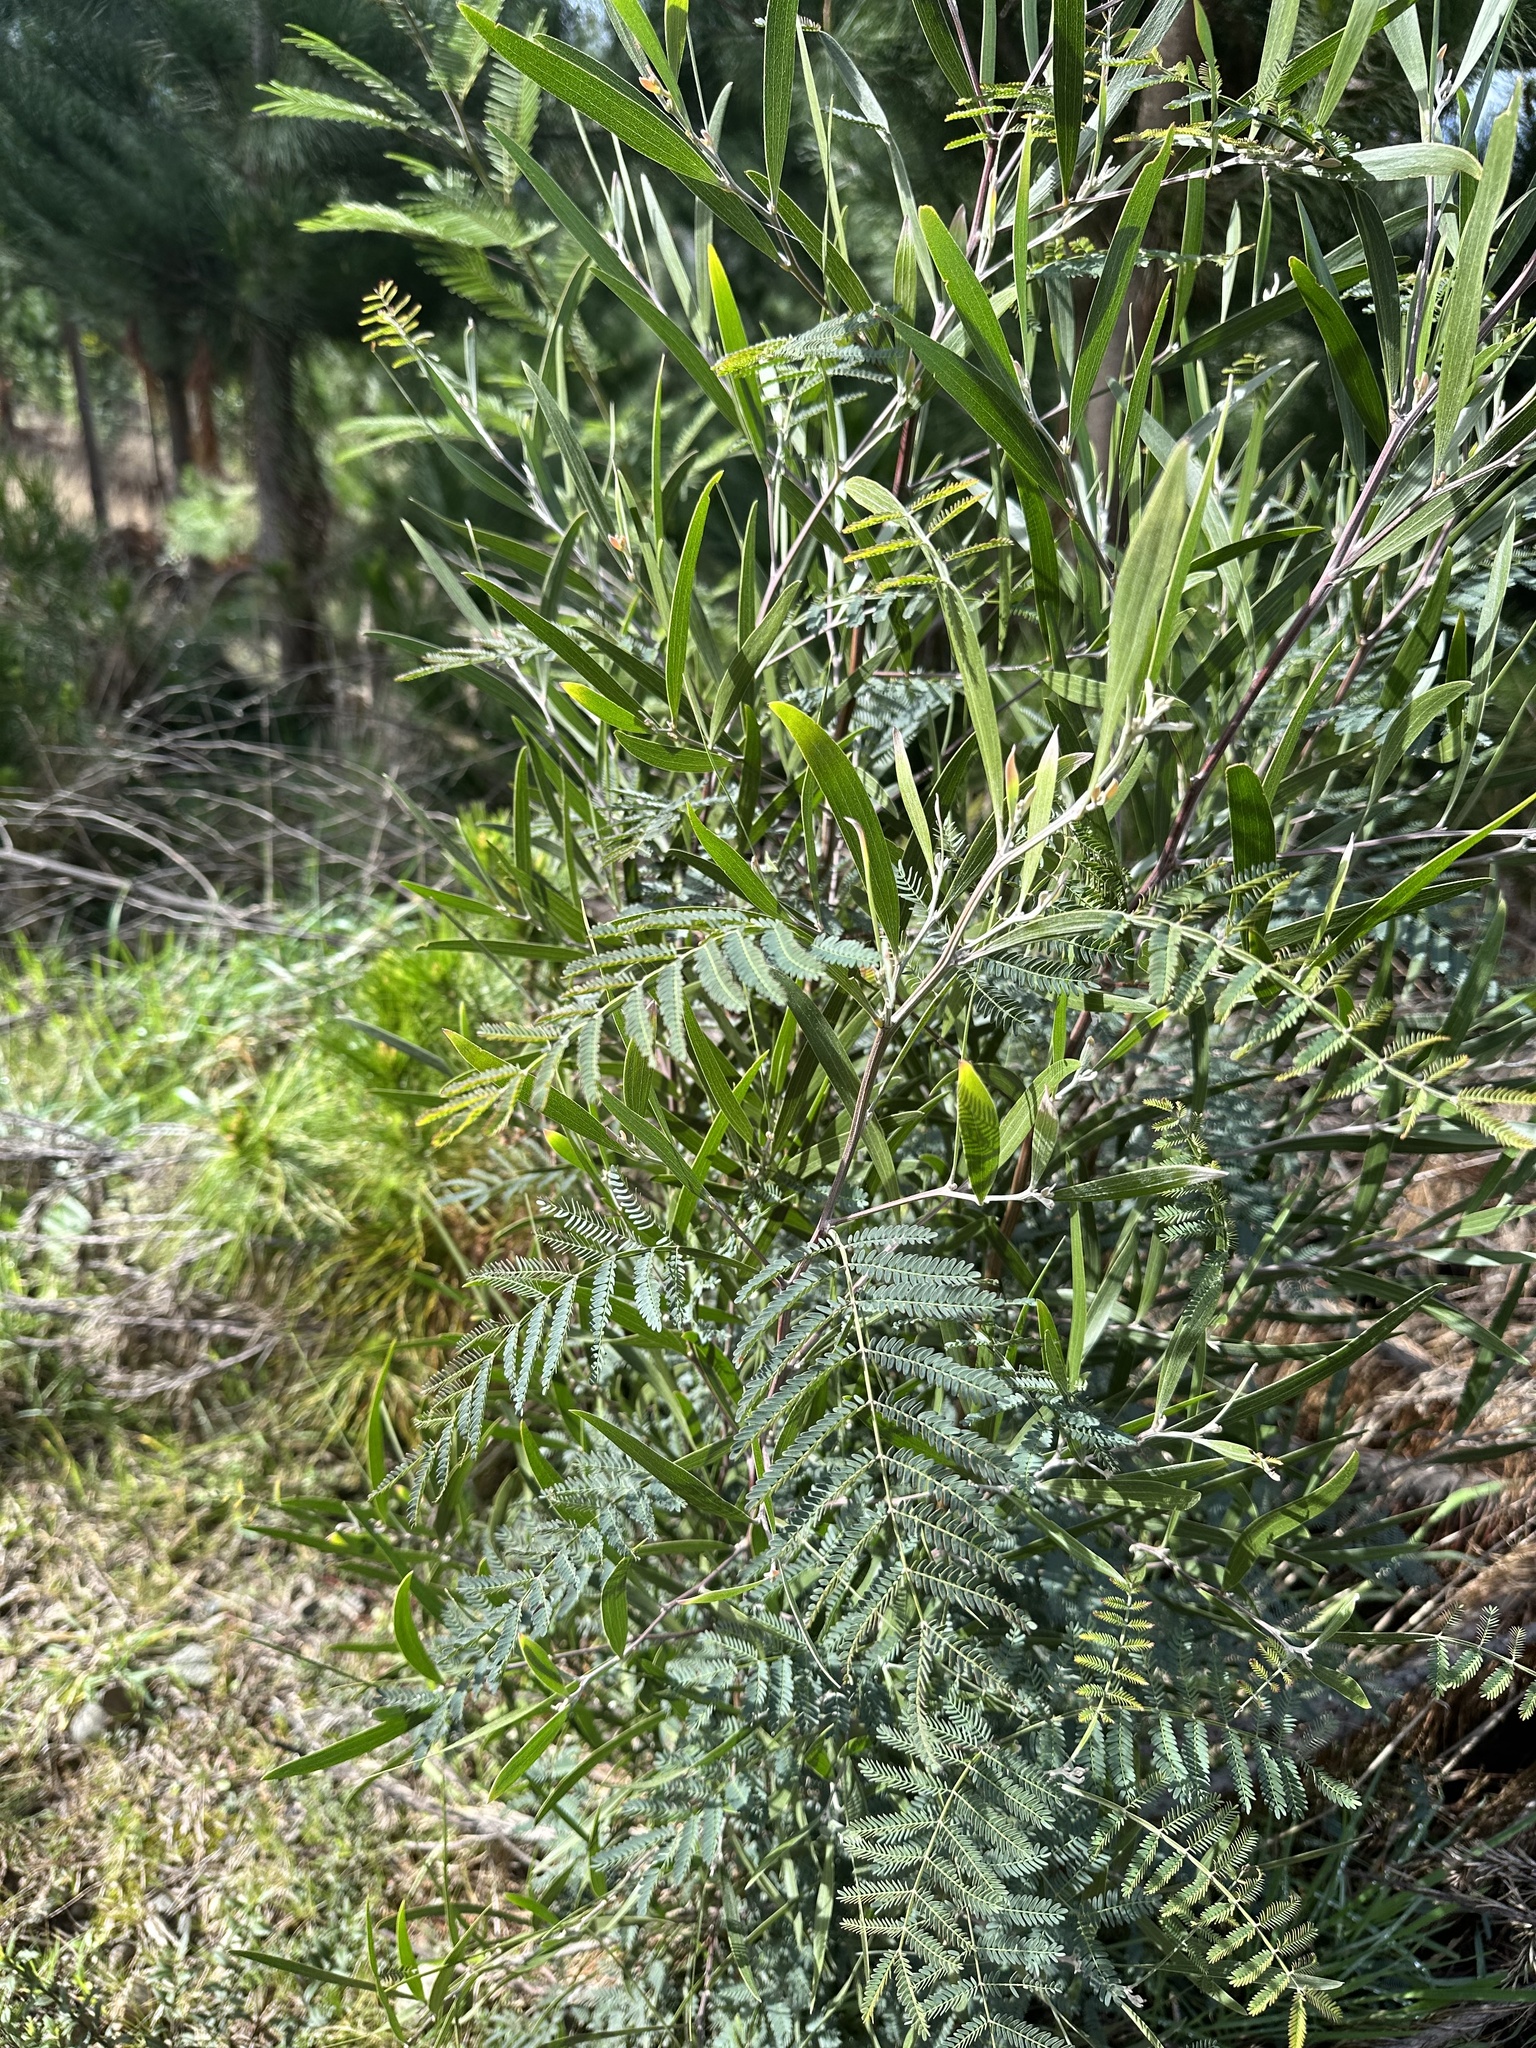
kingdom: Plantae
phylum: Tracheophyta
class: Magnoliopsida
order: Fabales
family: Fabaceae
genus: Acacia
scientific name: Acacia melanoxylon
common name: Blackwood
